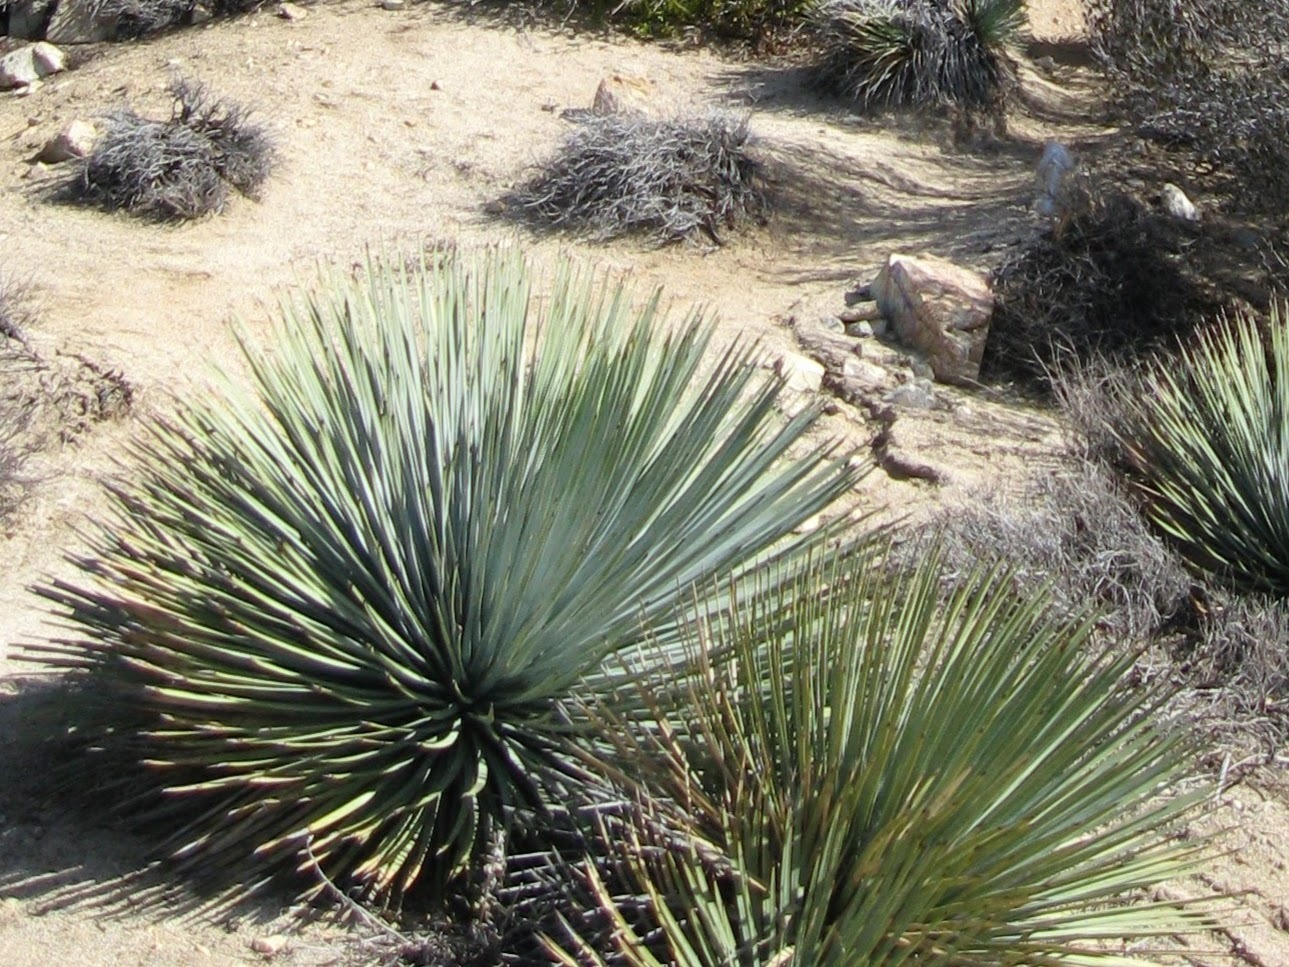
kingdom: Plantae
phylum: Tracheophyta
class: Liliopsida
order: Asparagales
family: Asparagaceae
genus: Hesperoyucca
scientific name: Hesperoyucca whipplei
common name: Our lord's-candle
